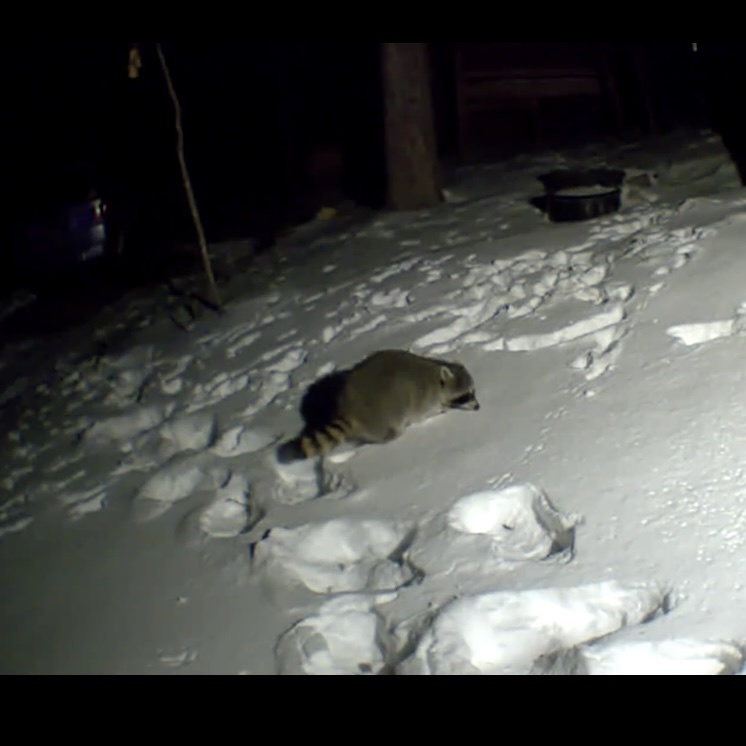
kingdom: Animalia
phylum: Chordata
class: Mammalia
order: Carnivora
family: Procyonidae
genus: Procyon
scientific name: Procyon lotor
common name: Raccoon
